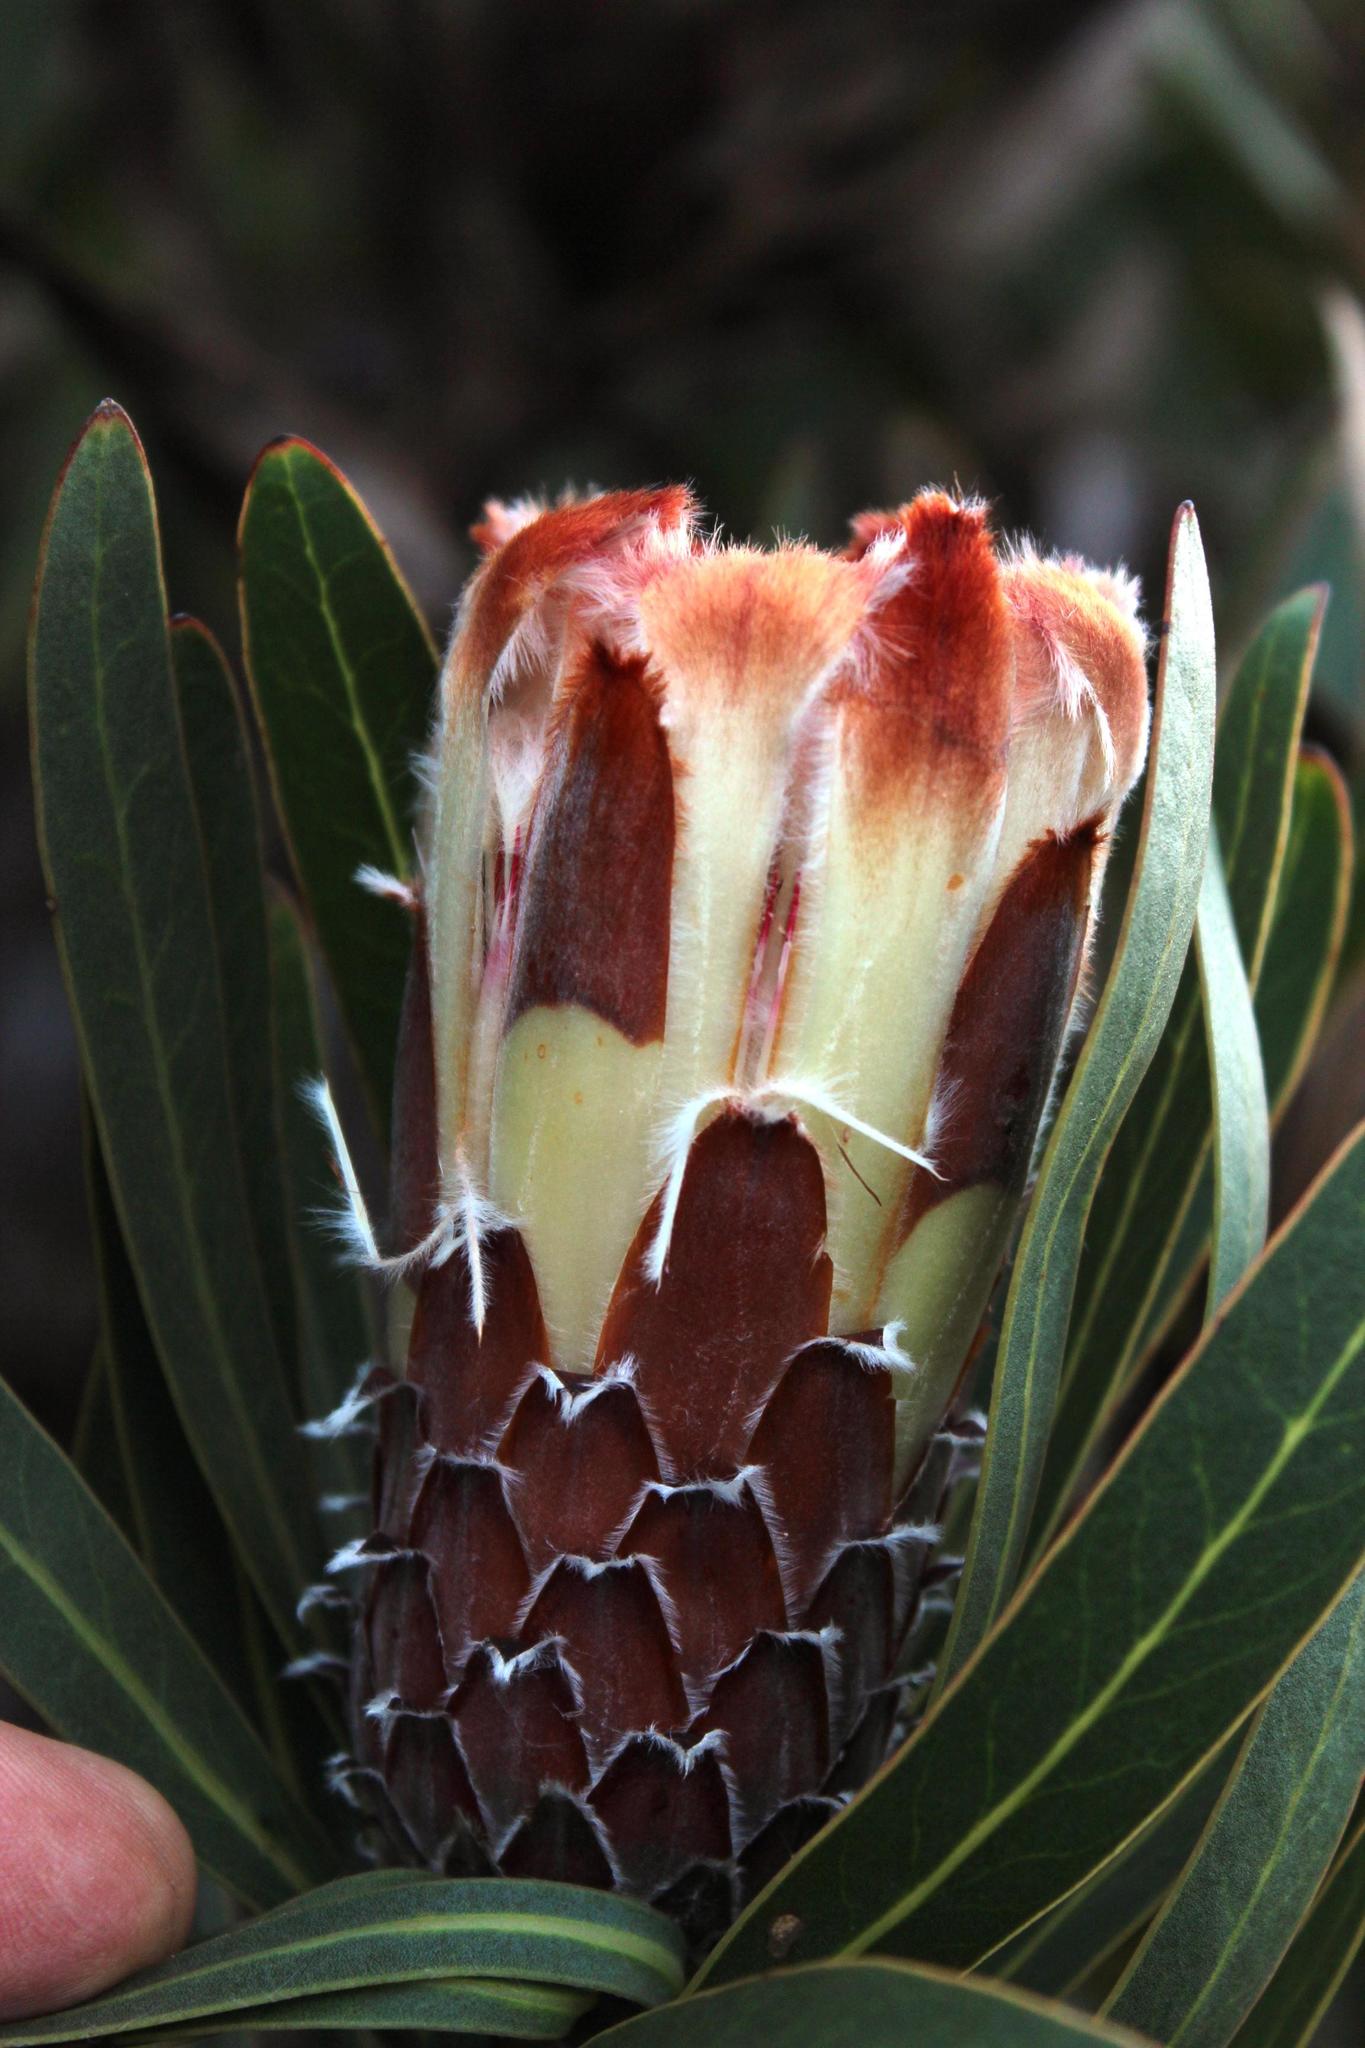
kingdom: Plantae
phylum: Tracheophyta
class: Magnoliopsida
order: Proteales
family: Proteaceae
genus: Protea
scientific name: Protea lepidocarpodendron
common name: Black-bearded protea
